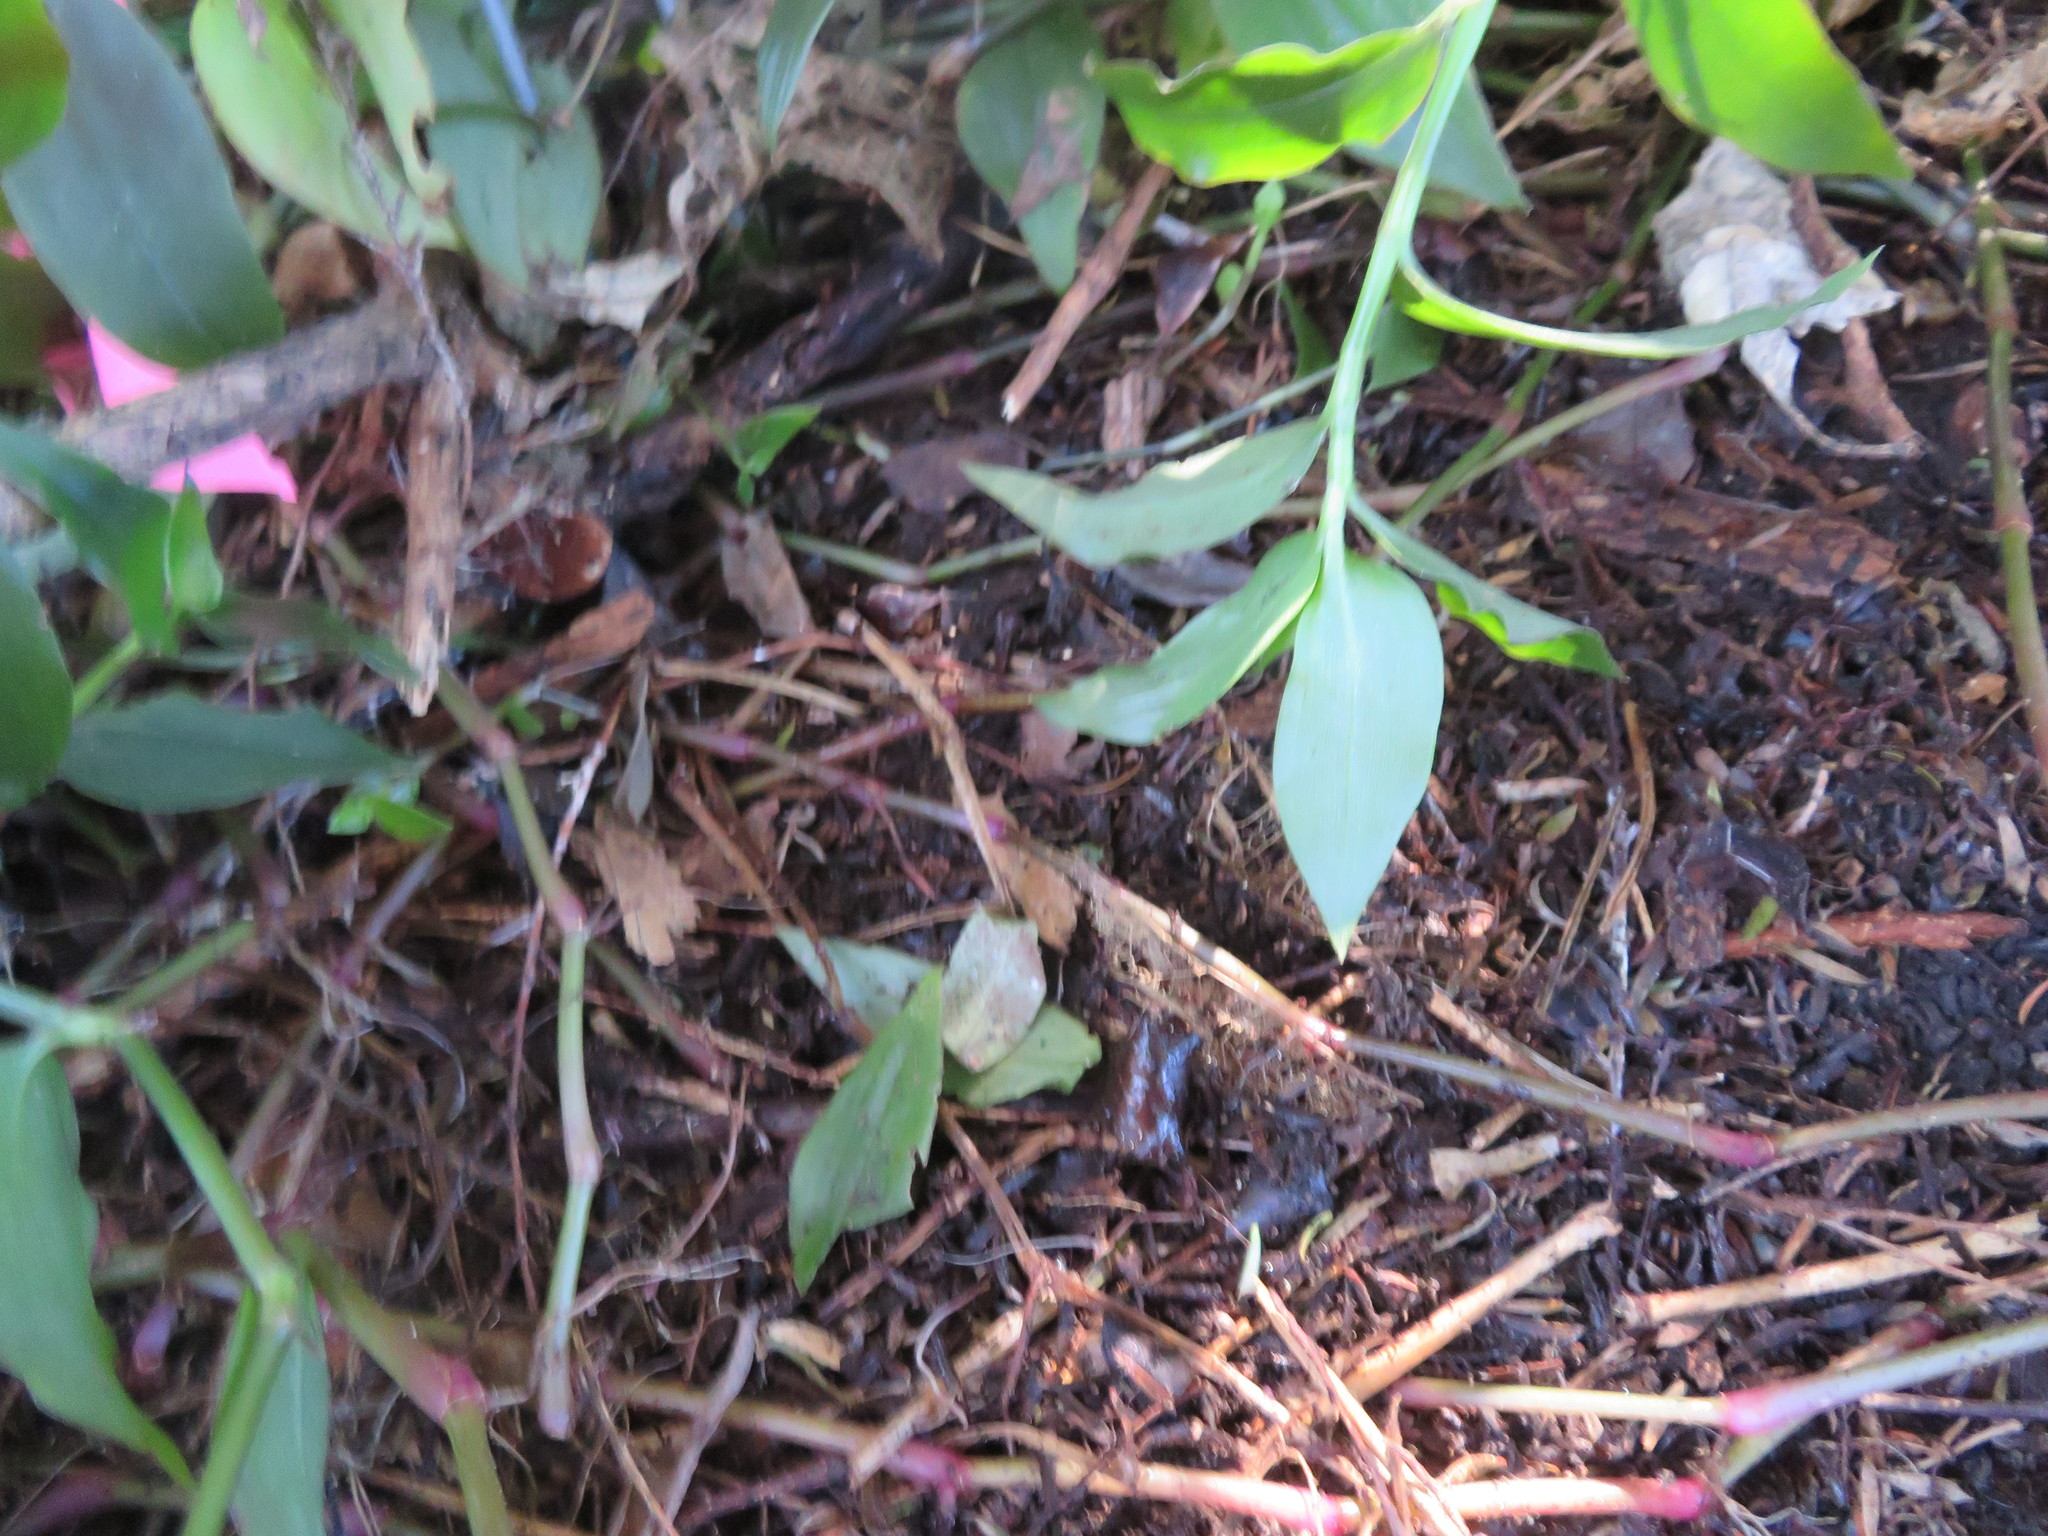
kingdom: Plantae
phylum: Tracheophyta
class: Liliopsida
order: Commelinales
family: Commelinaceae
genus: Tradescantia
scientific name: Tradescantia fluminensis
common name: Wandering-jew
